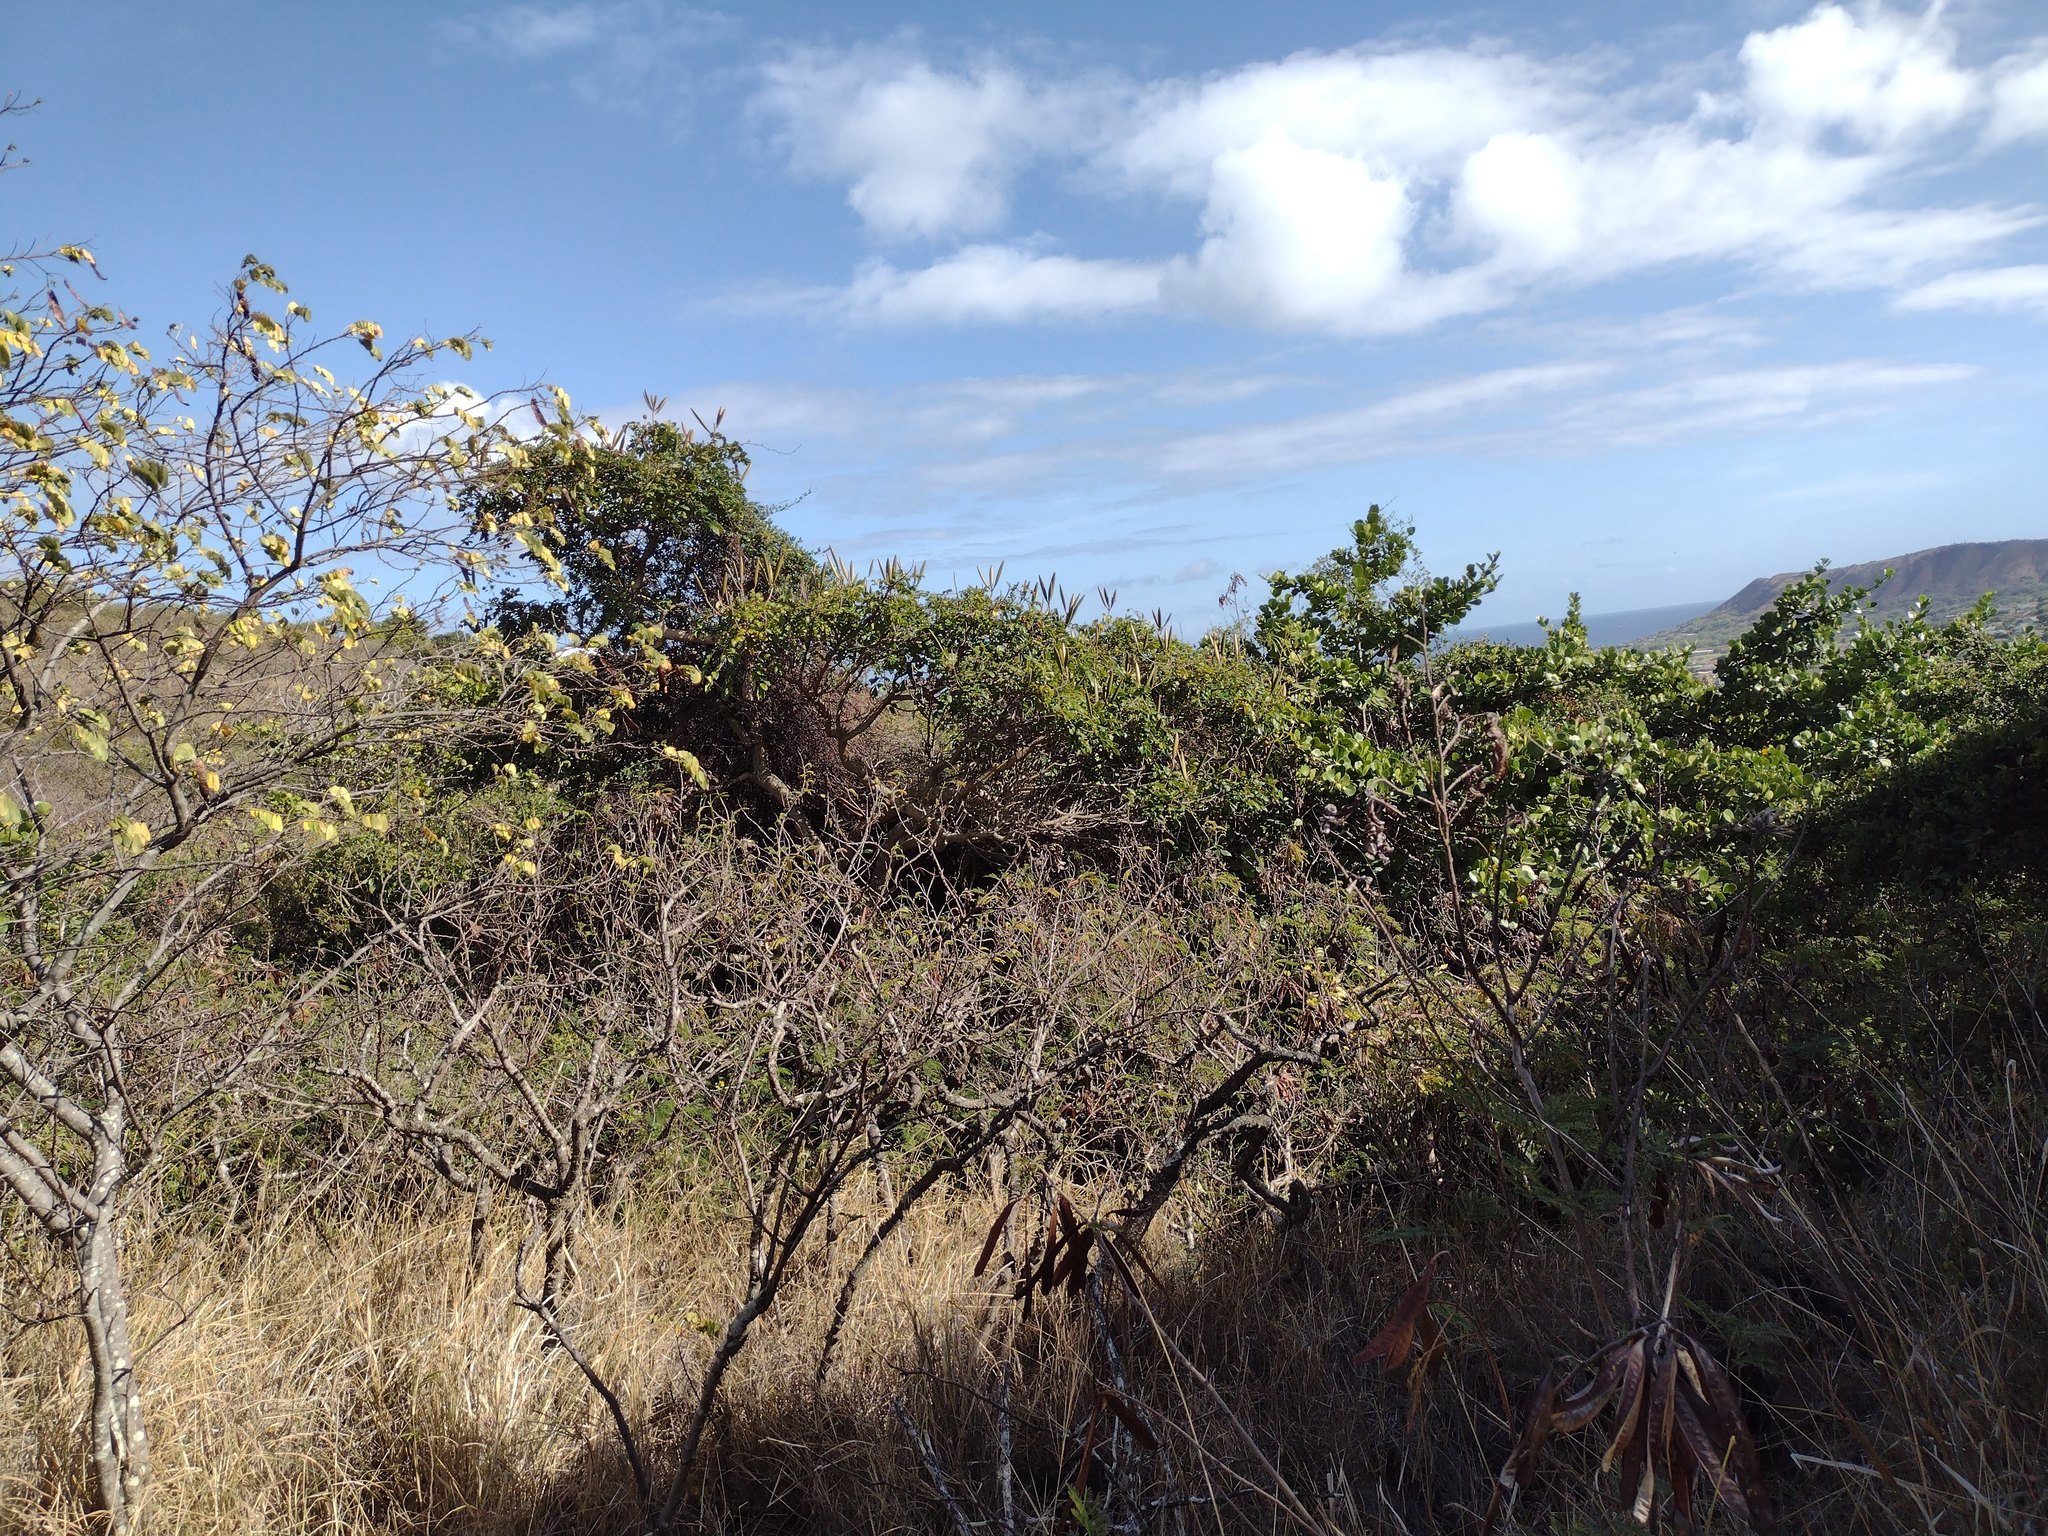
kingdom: Plantae
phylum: Tracheophyta
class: Magnoliopsida
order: Lamiales
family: Bignoniaceae
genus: Spathodea
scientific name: Spathodea campanulata
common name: African tuliptree
